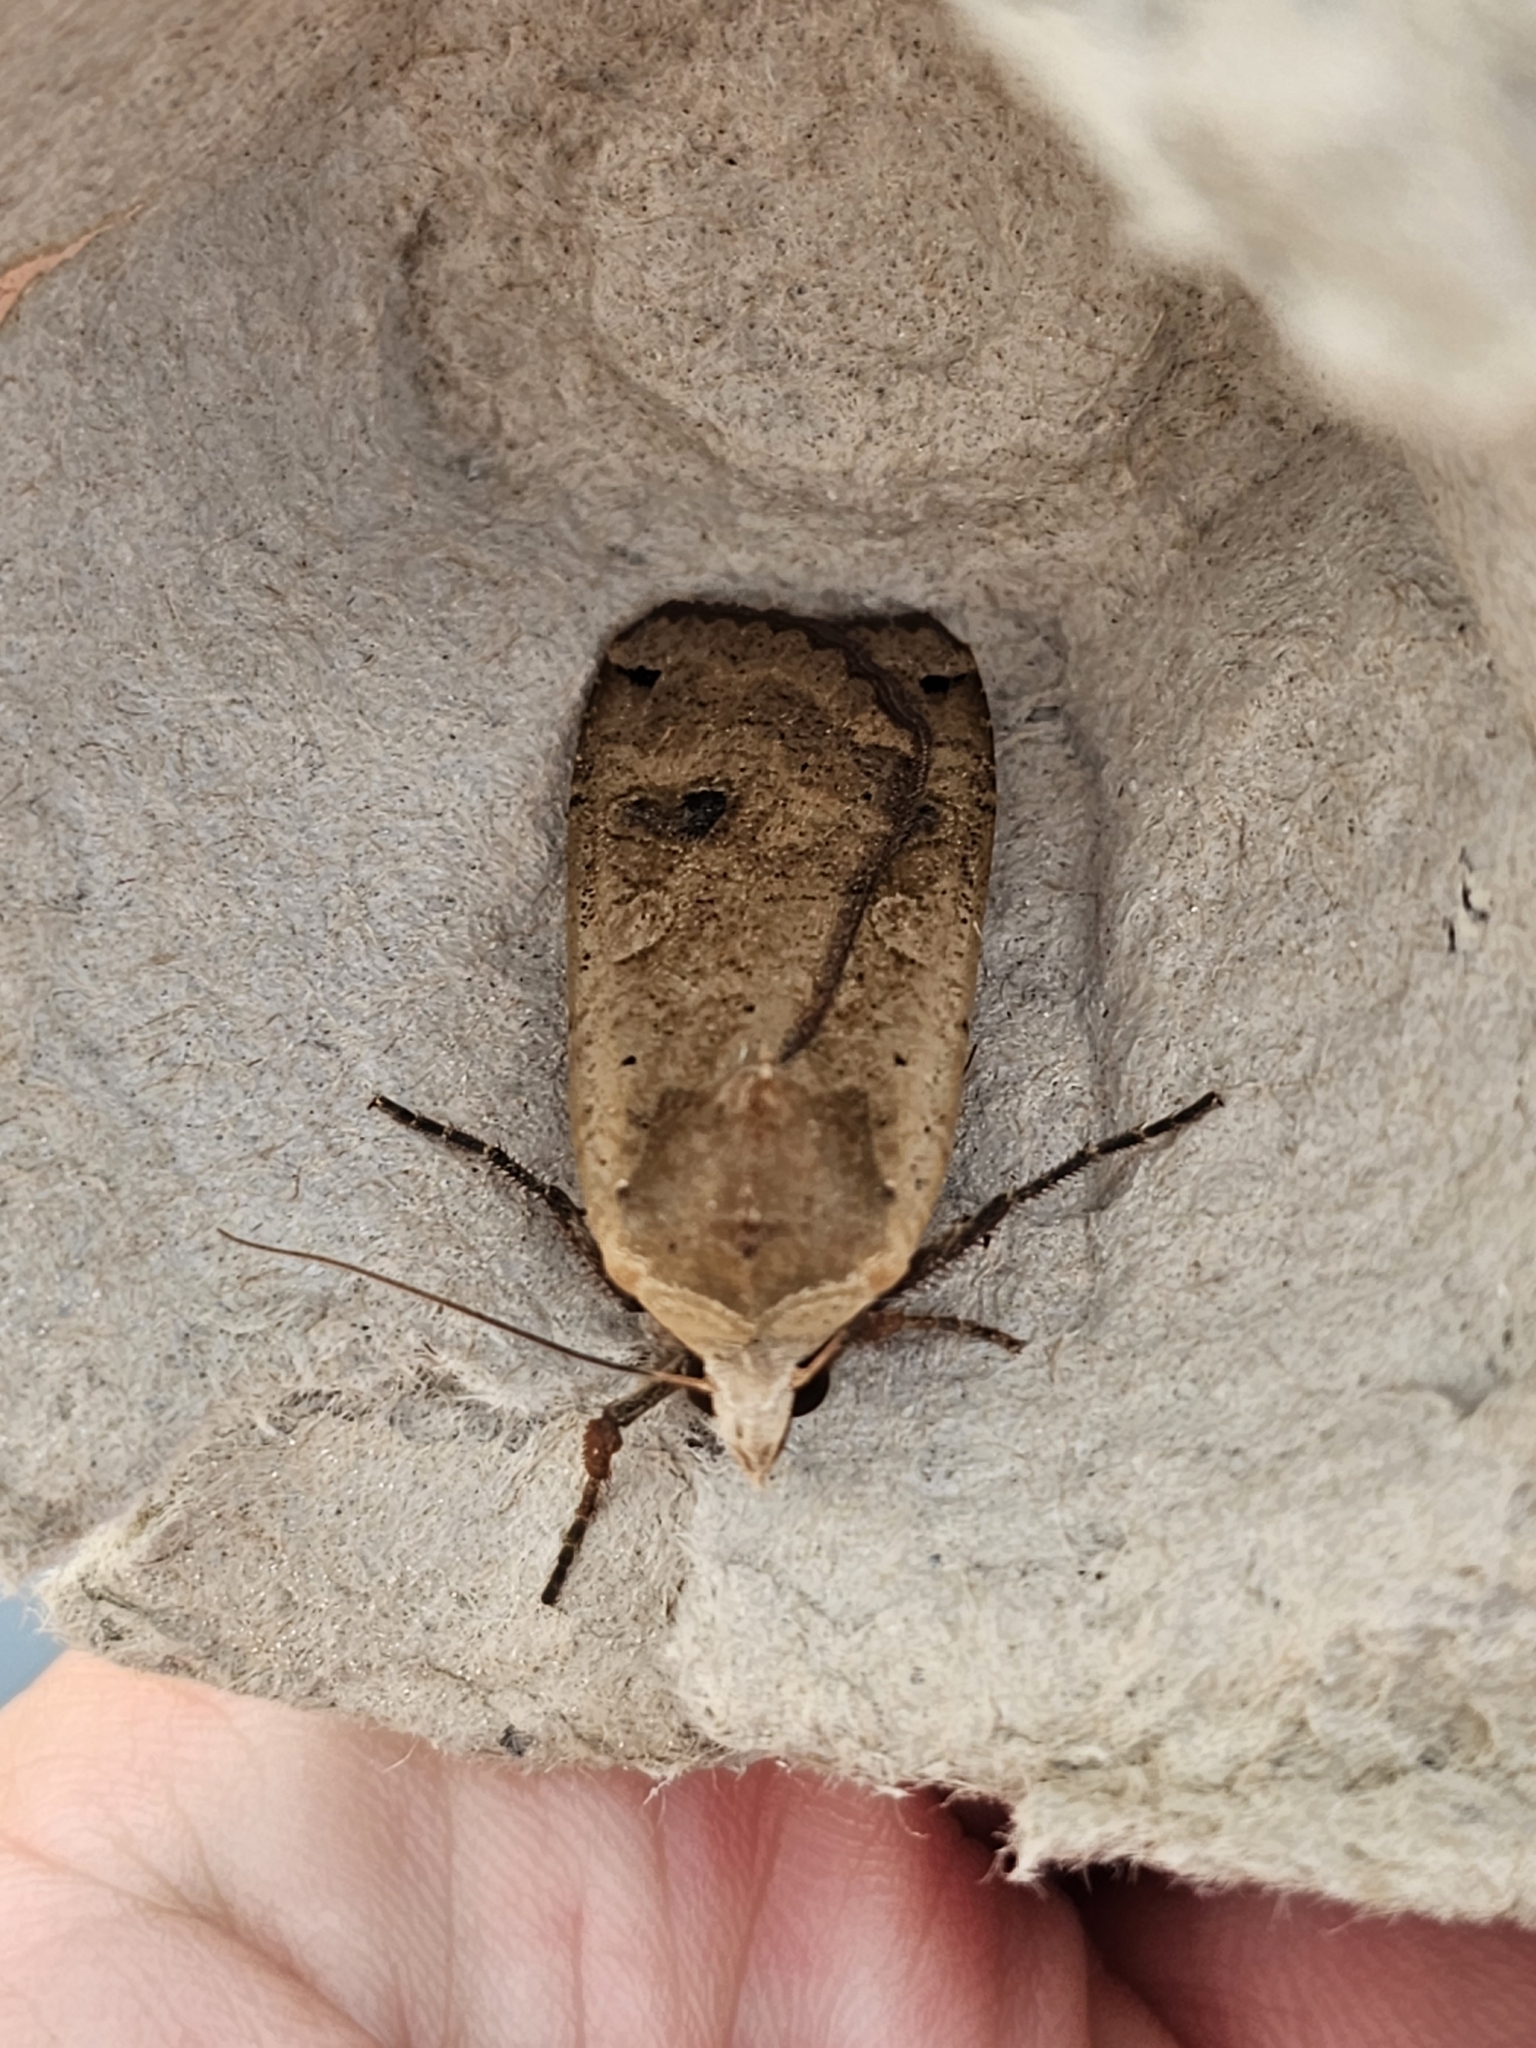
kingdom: Animalia
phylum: Arthropoda
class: Insecta
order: Lepidoptera
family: Noctuidae
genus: Noctua
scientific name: Noctua pronuba
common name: Large yellow underwing
